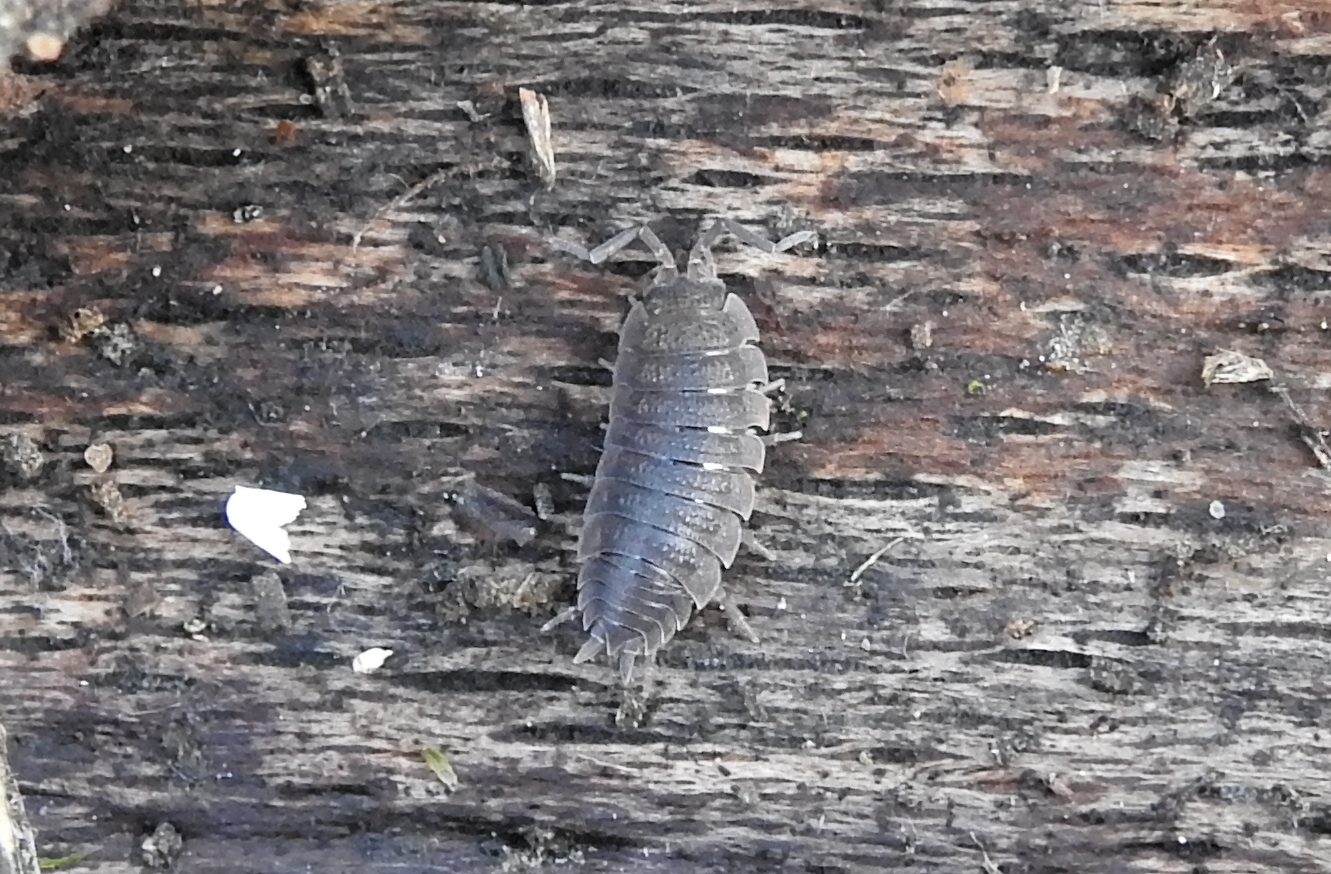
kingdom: Animalia
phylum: Arthropoda
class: Malacostraca
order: Isopoda
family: Porcellionidae
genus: Porcellio
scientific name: Porcellio scaber
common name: Common rough woodlouse
